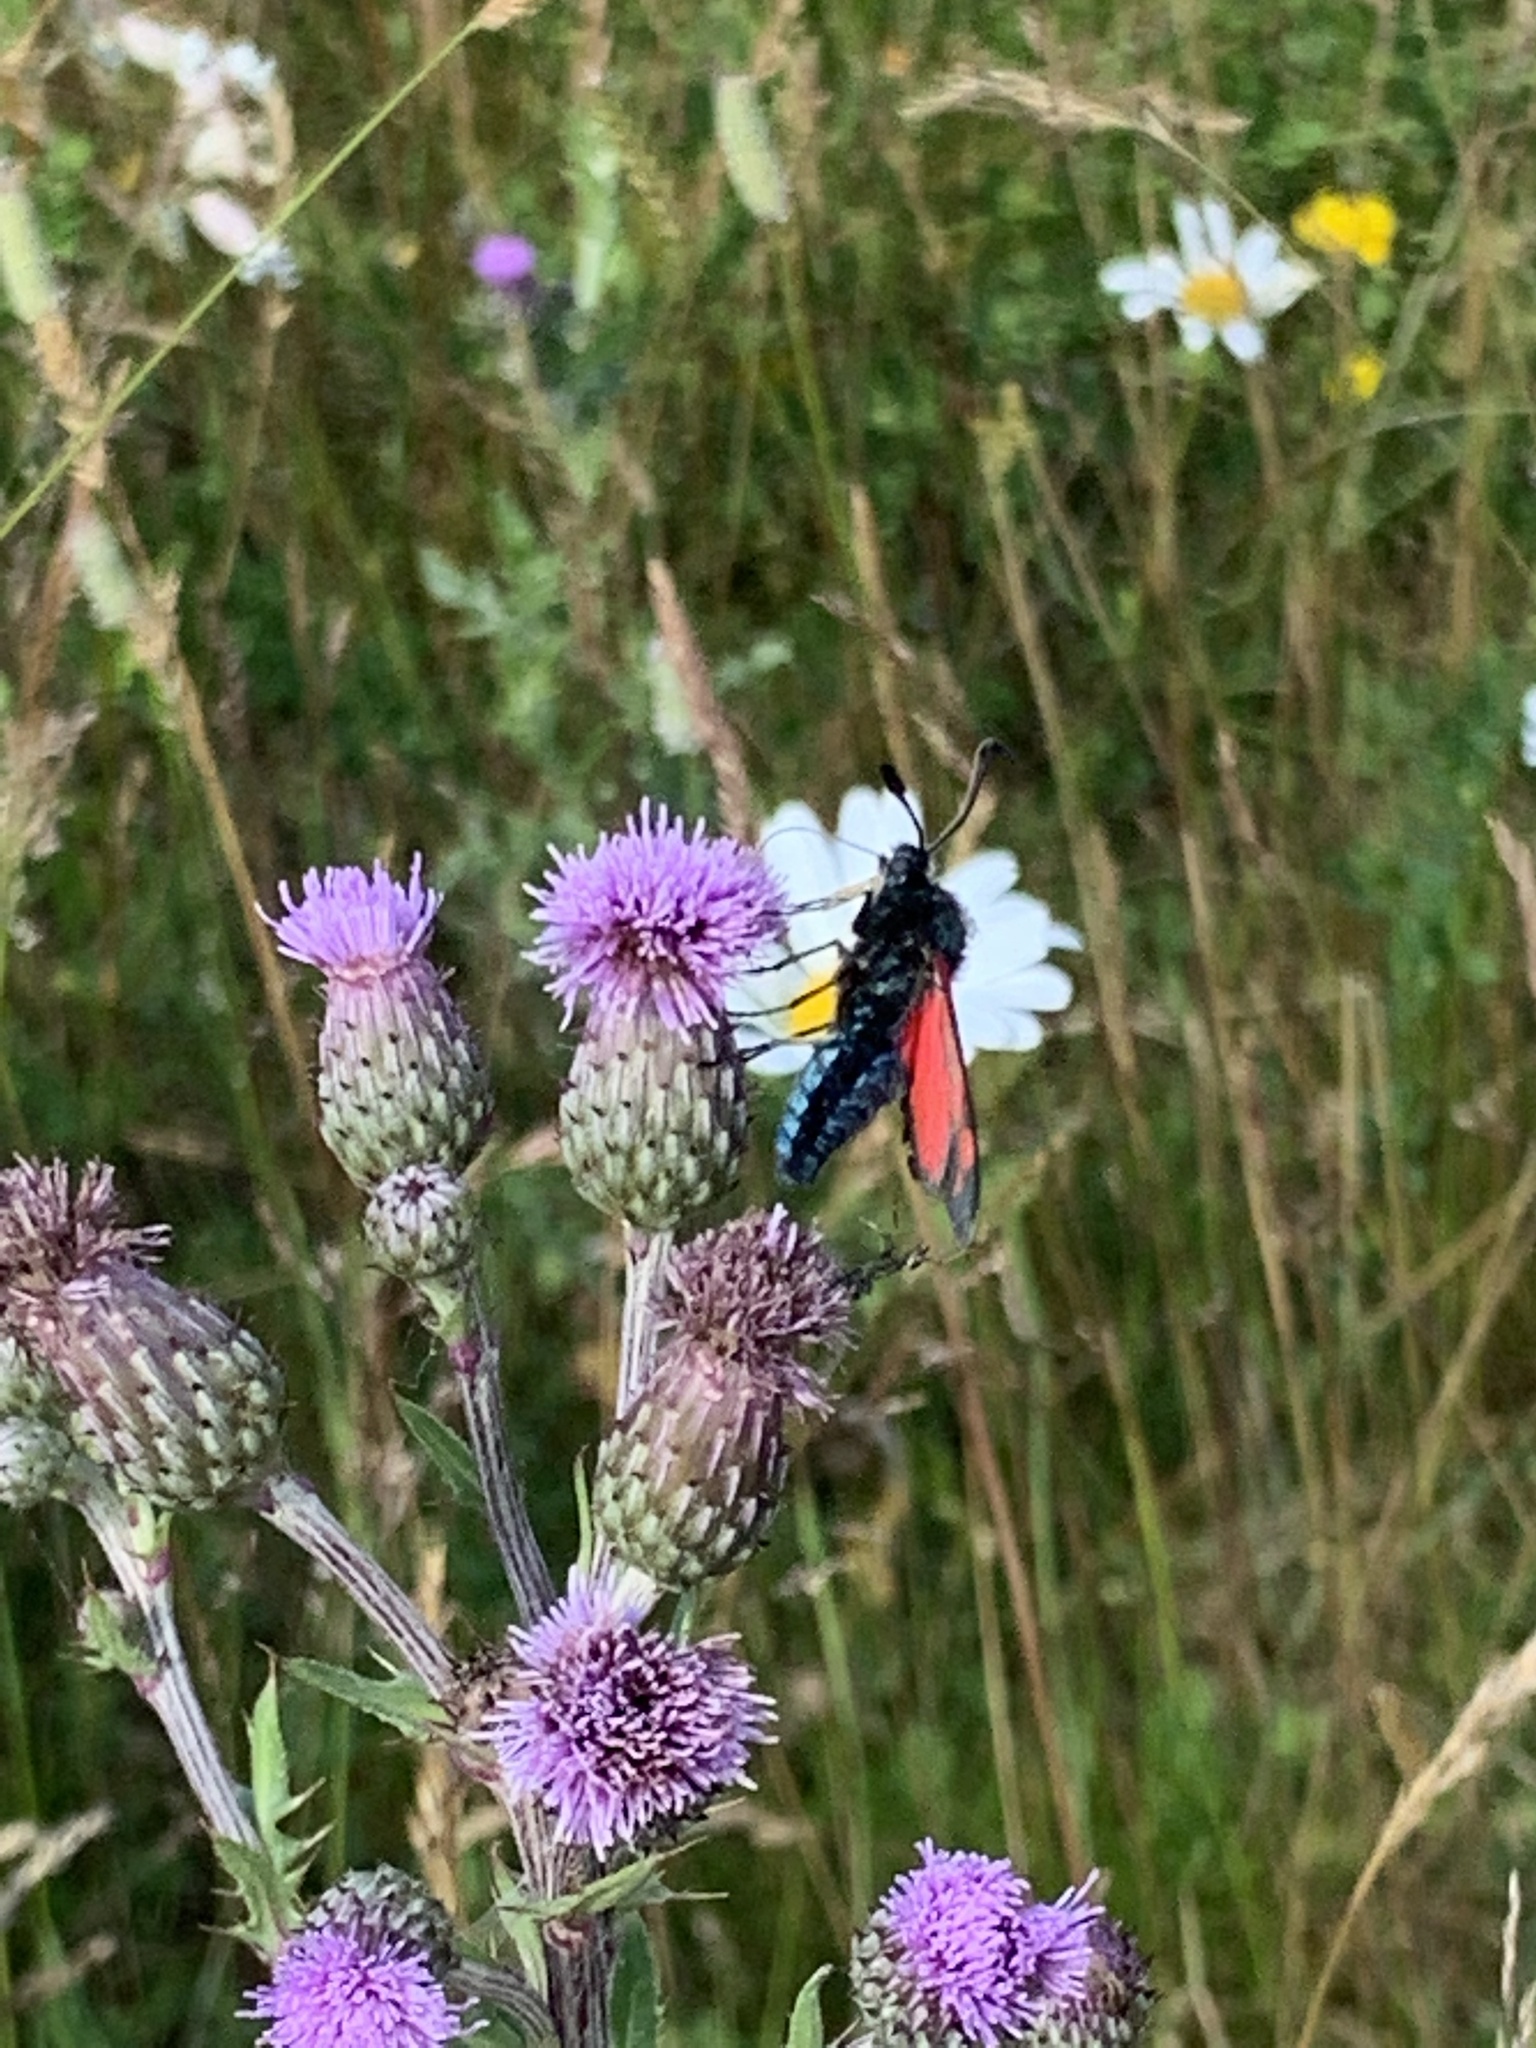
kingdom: Animalia
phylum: Arthropoda
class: Insecta
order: Lepidoptera
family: Zygaenidae
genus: Zygaena
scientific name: Zygaena filipendulae
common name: Six-spot burnet
